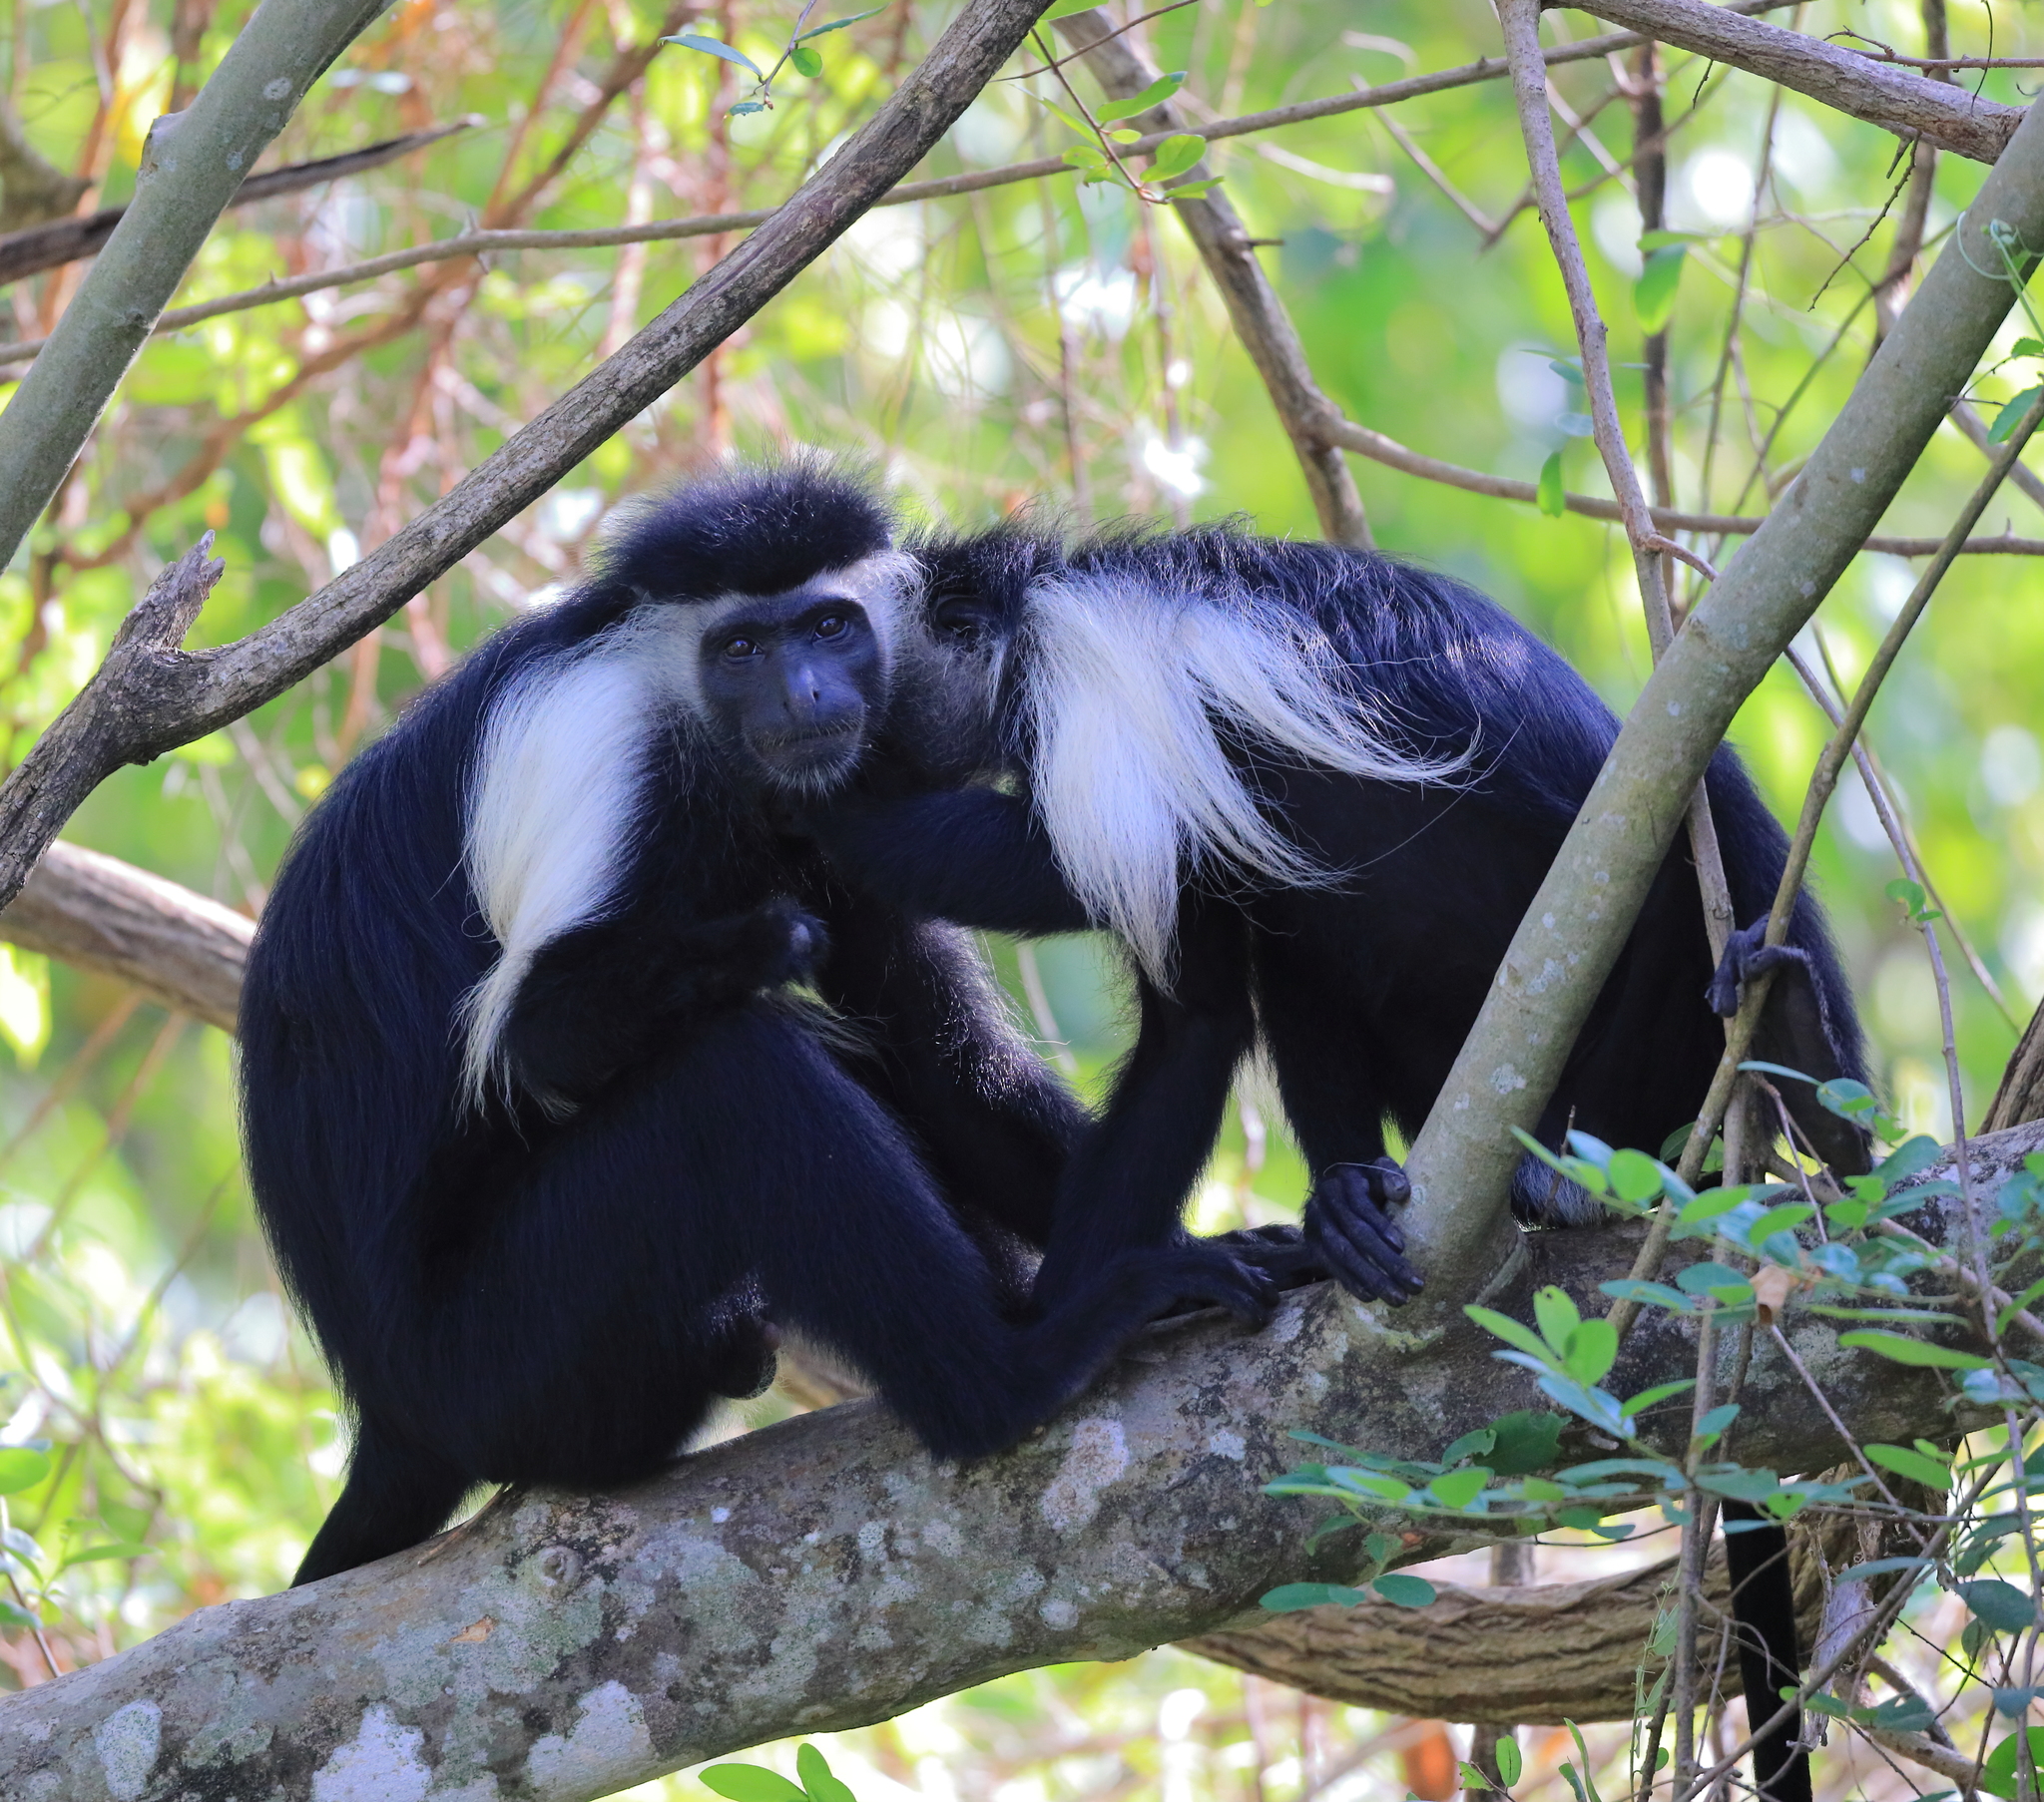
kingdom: Animalia
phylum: Chordata
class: Mammalia
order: Primates
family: Cercopithecidae
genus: Colobus
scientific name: Colobus angolensis
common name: Angola colobus
